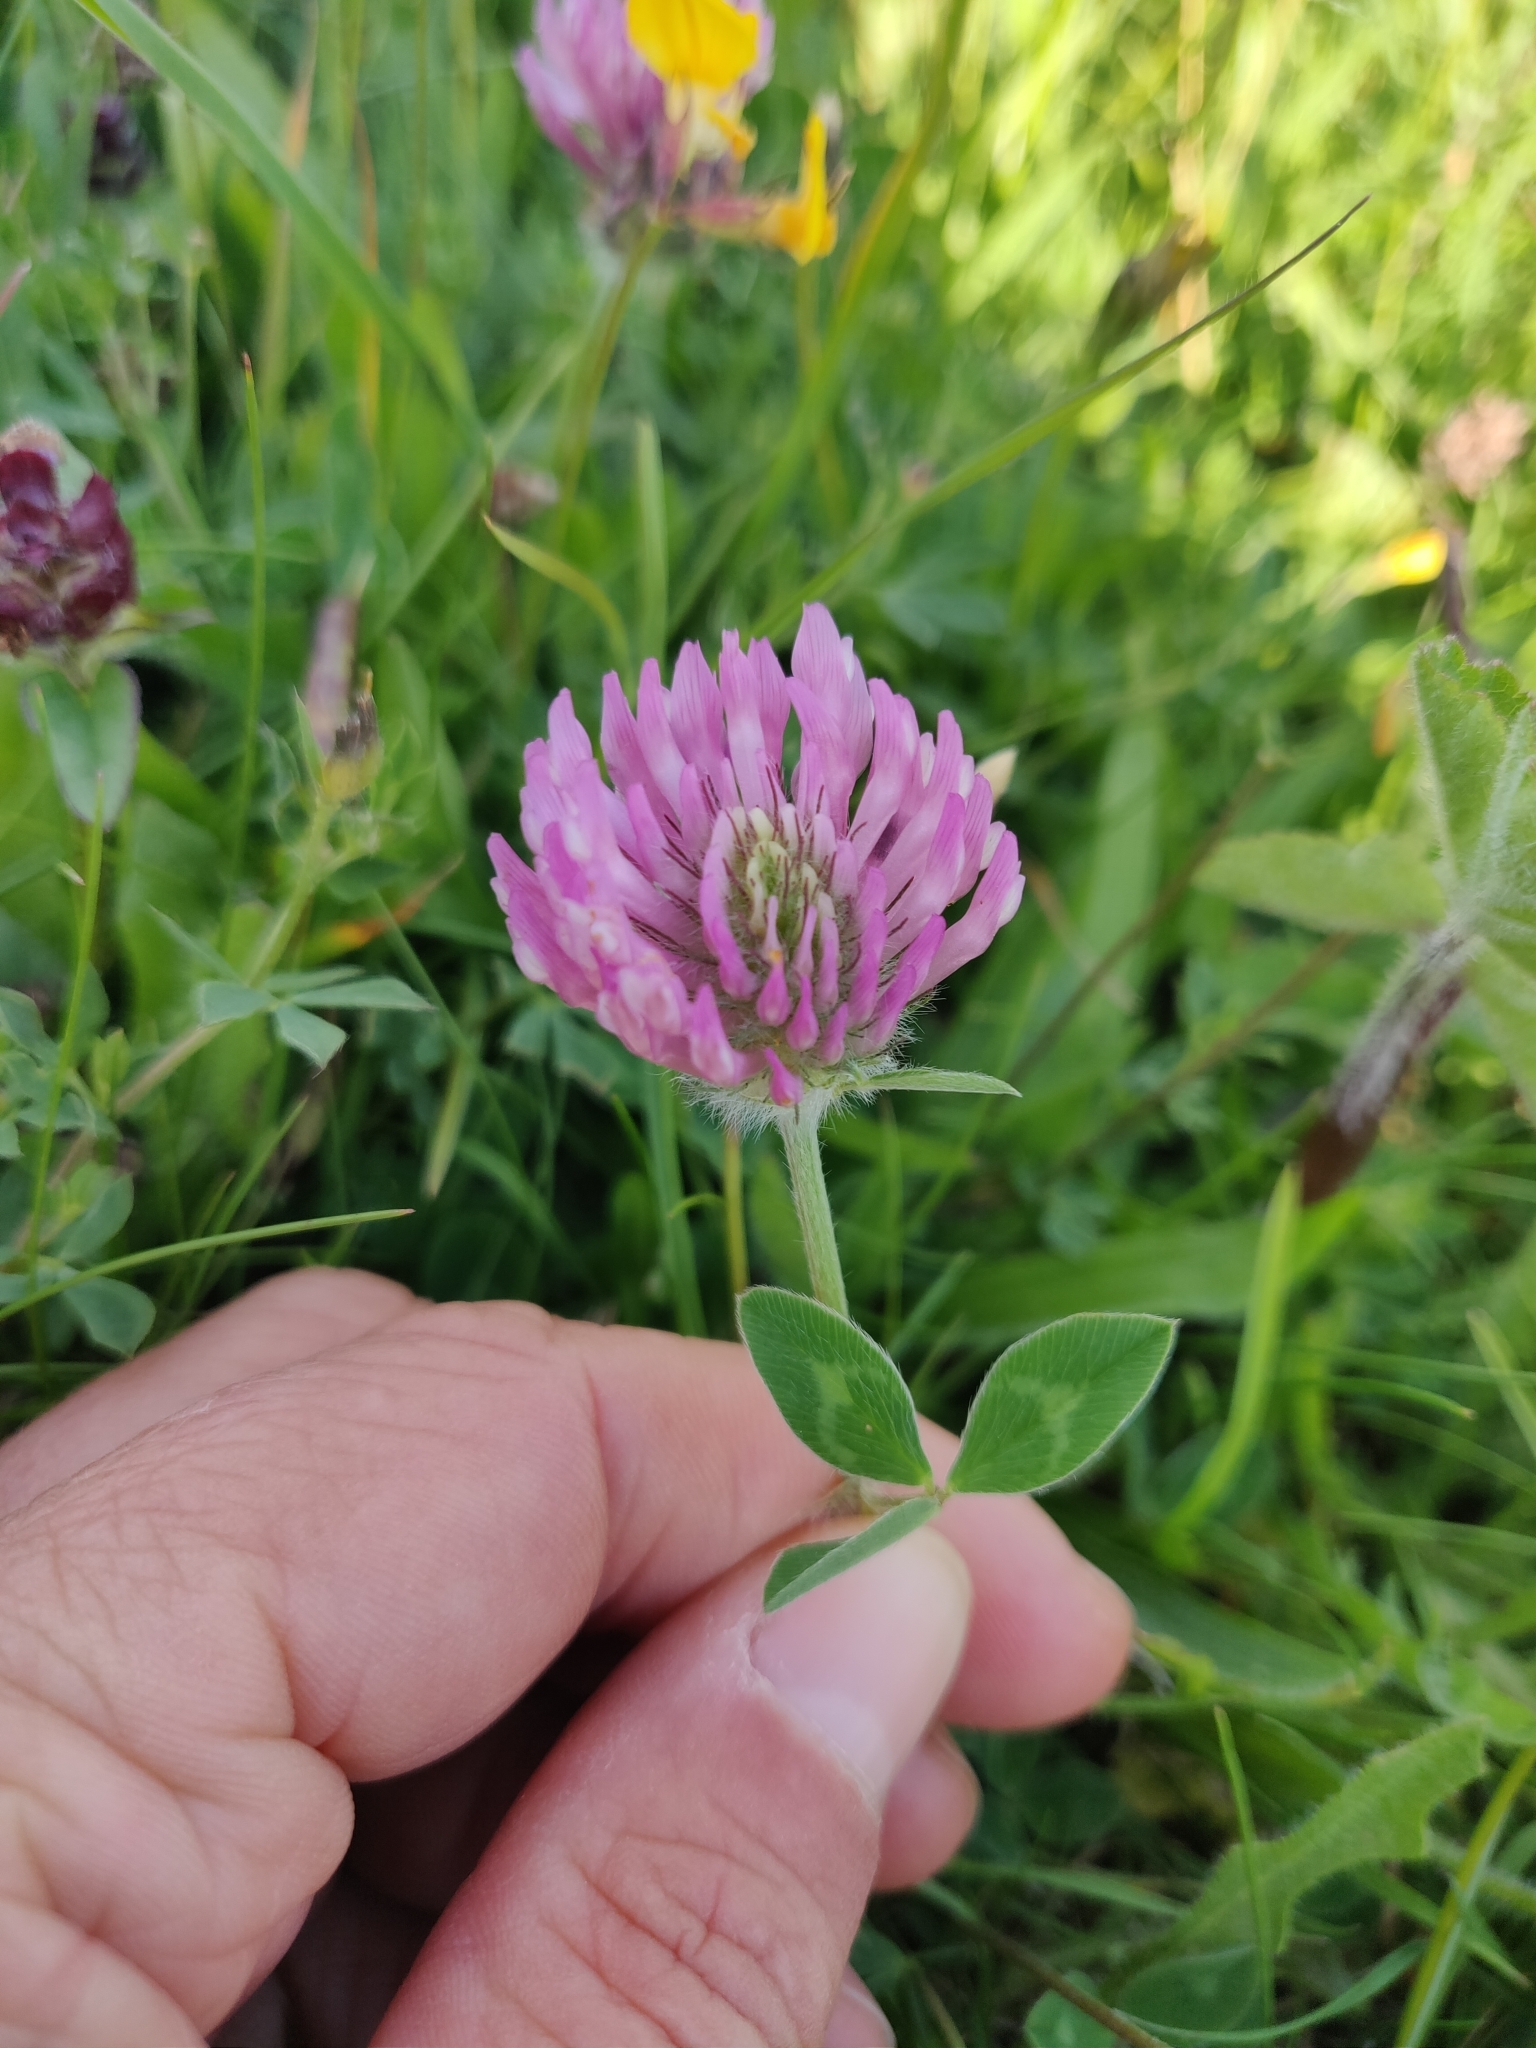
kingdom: Plantae
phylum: Tracheophyta
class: Magnoliopsida
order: Fabales
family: Fabaceae
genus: Trifolium
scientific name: Trifolium pratense
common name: Red clover
